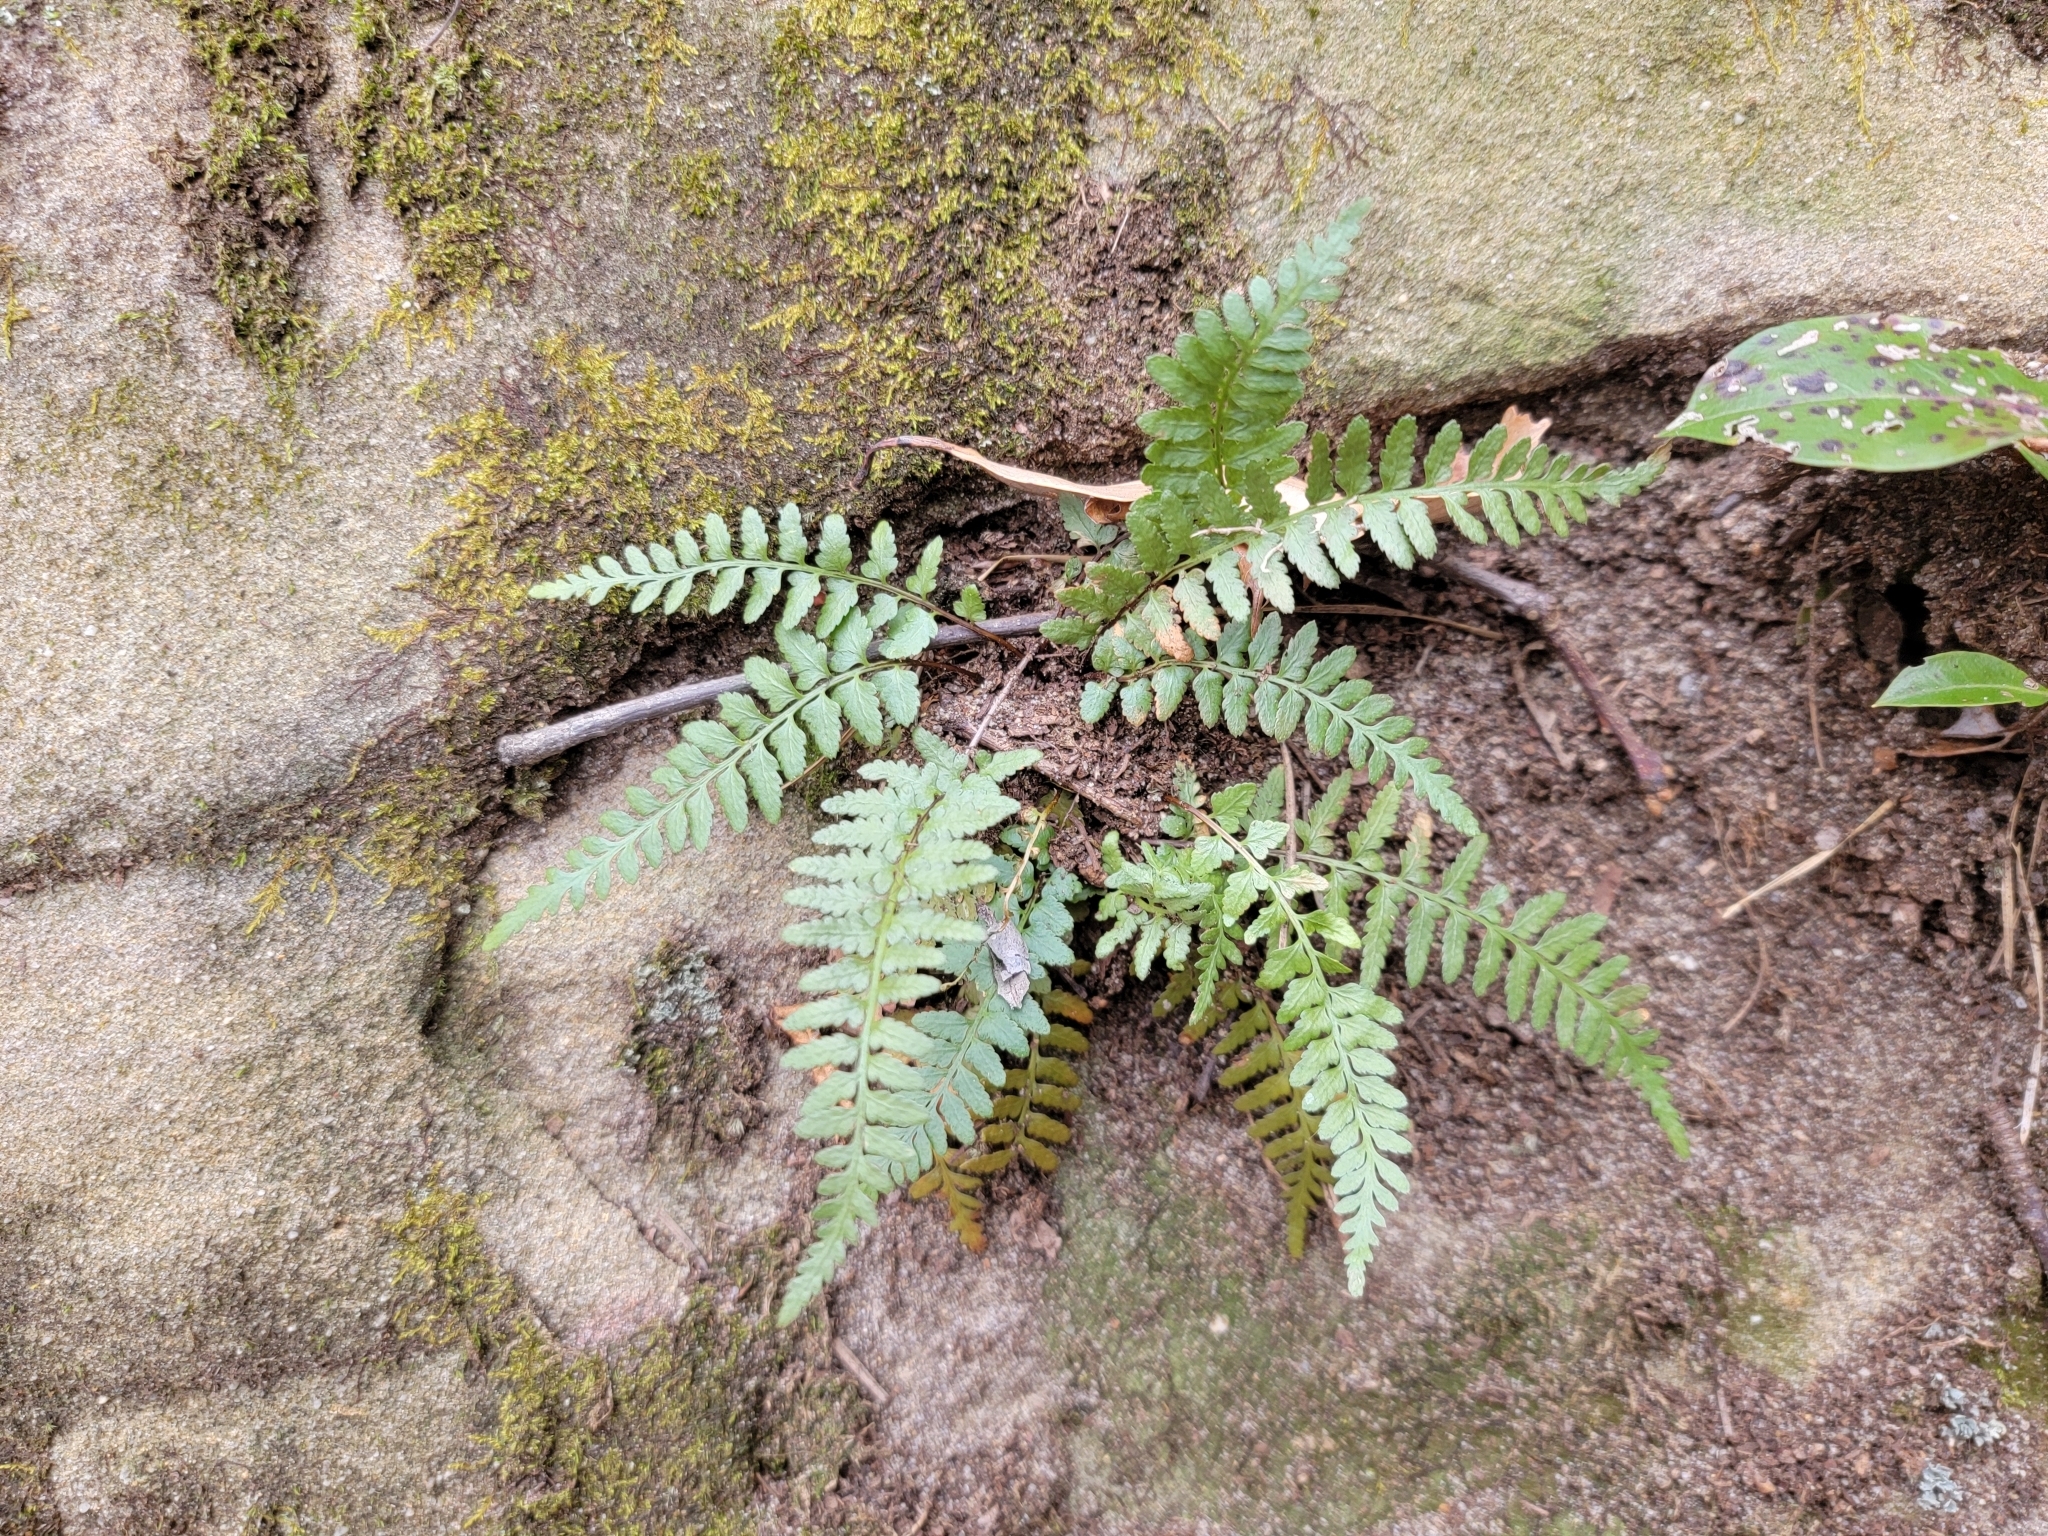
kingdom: Plantae
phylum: Tracheophyta
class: Polypodiopsida
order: Polypodiales
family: Aspleniaceae
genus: Asplenium
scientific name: Asplenium bradleyi
